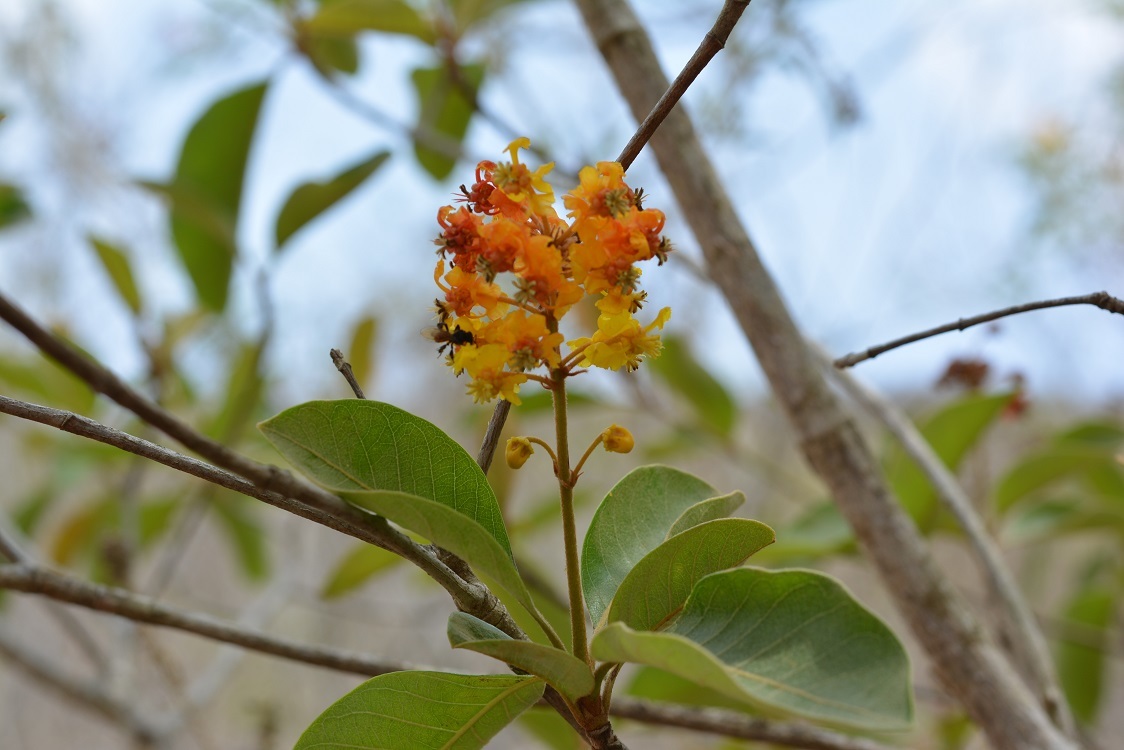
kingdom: Plantae
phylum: Tracheophyta
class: Magnoliopsida
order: Malpighiales
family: Malpighiaceae
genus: Byrsonima
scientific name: Byrsonima crassifolia
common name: Golden spoon
